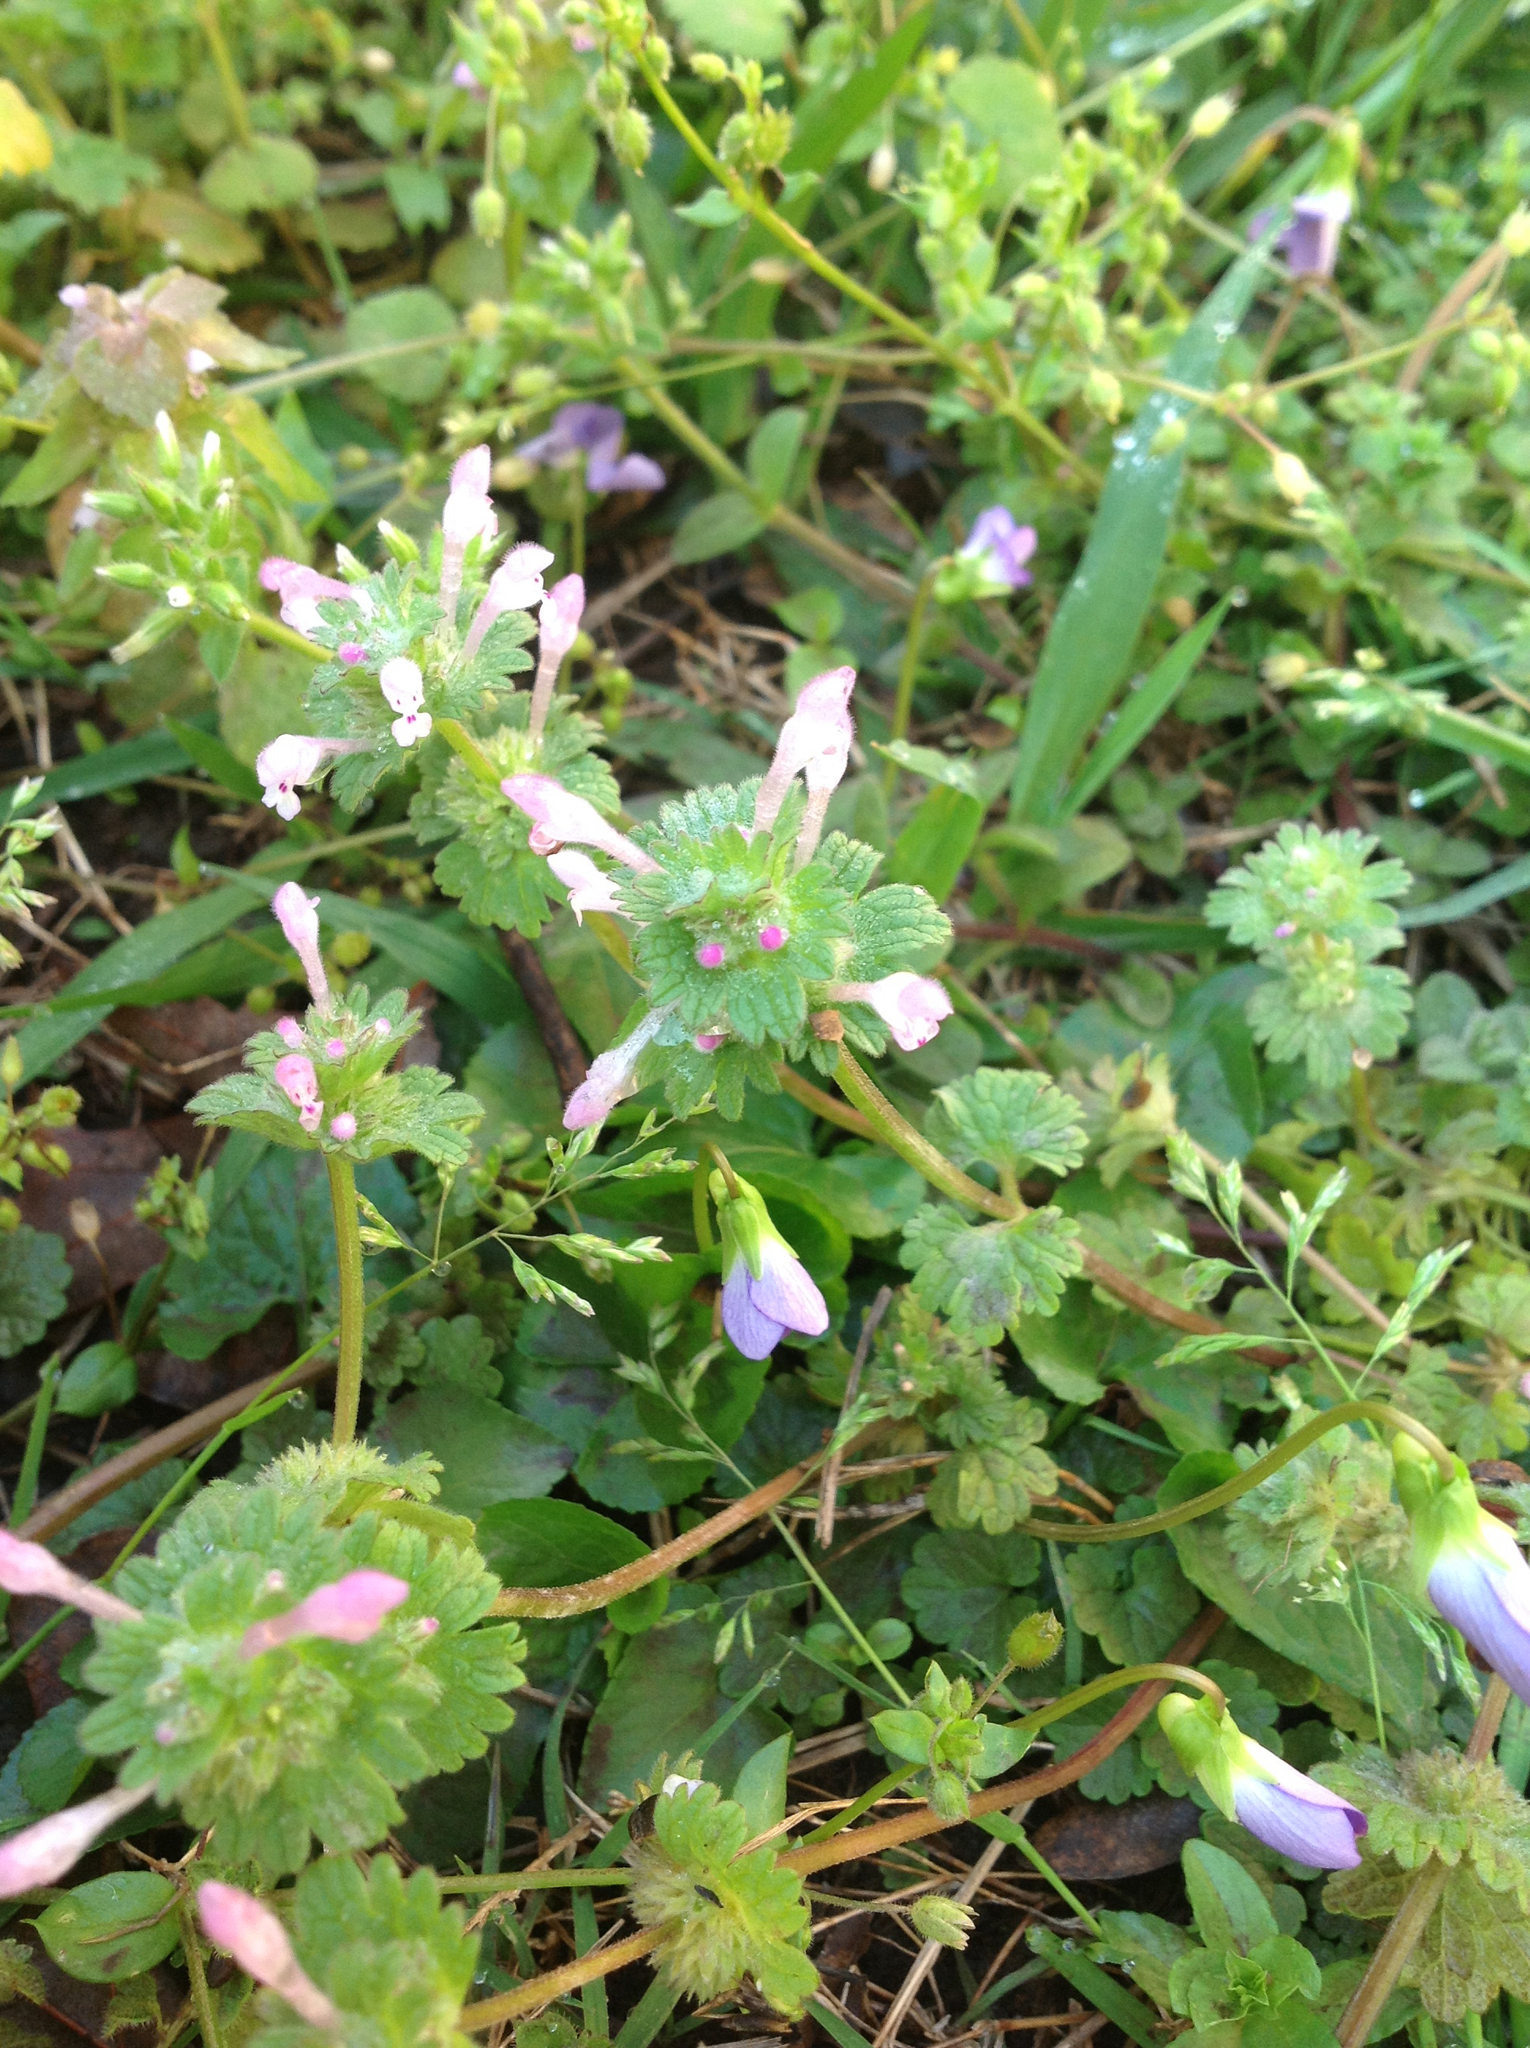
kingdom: Plantae
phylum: Tracheophyta
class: Magnoliopsida
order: Lamiales
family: Lamiaceae
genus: Lamium
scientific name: Lamium amplexicaule
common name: Henbit dead-nettle
